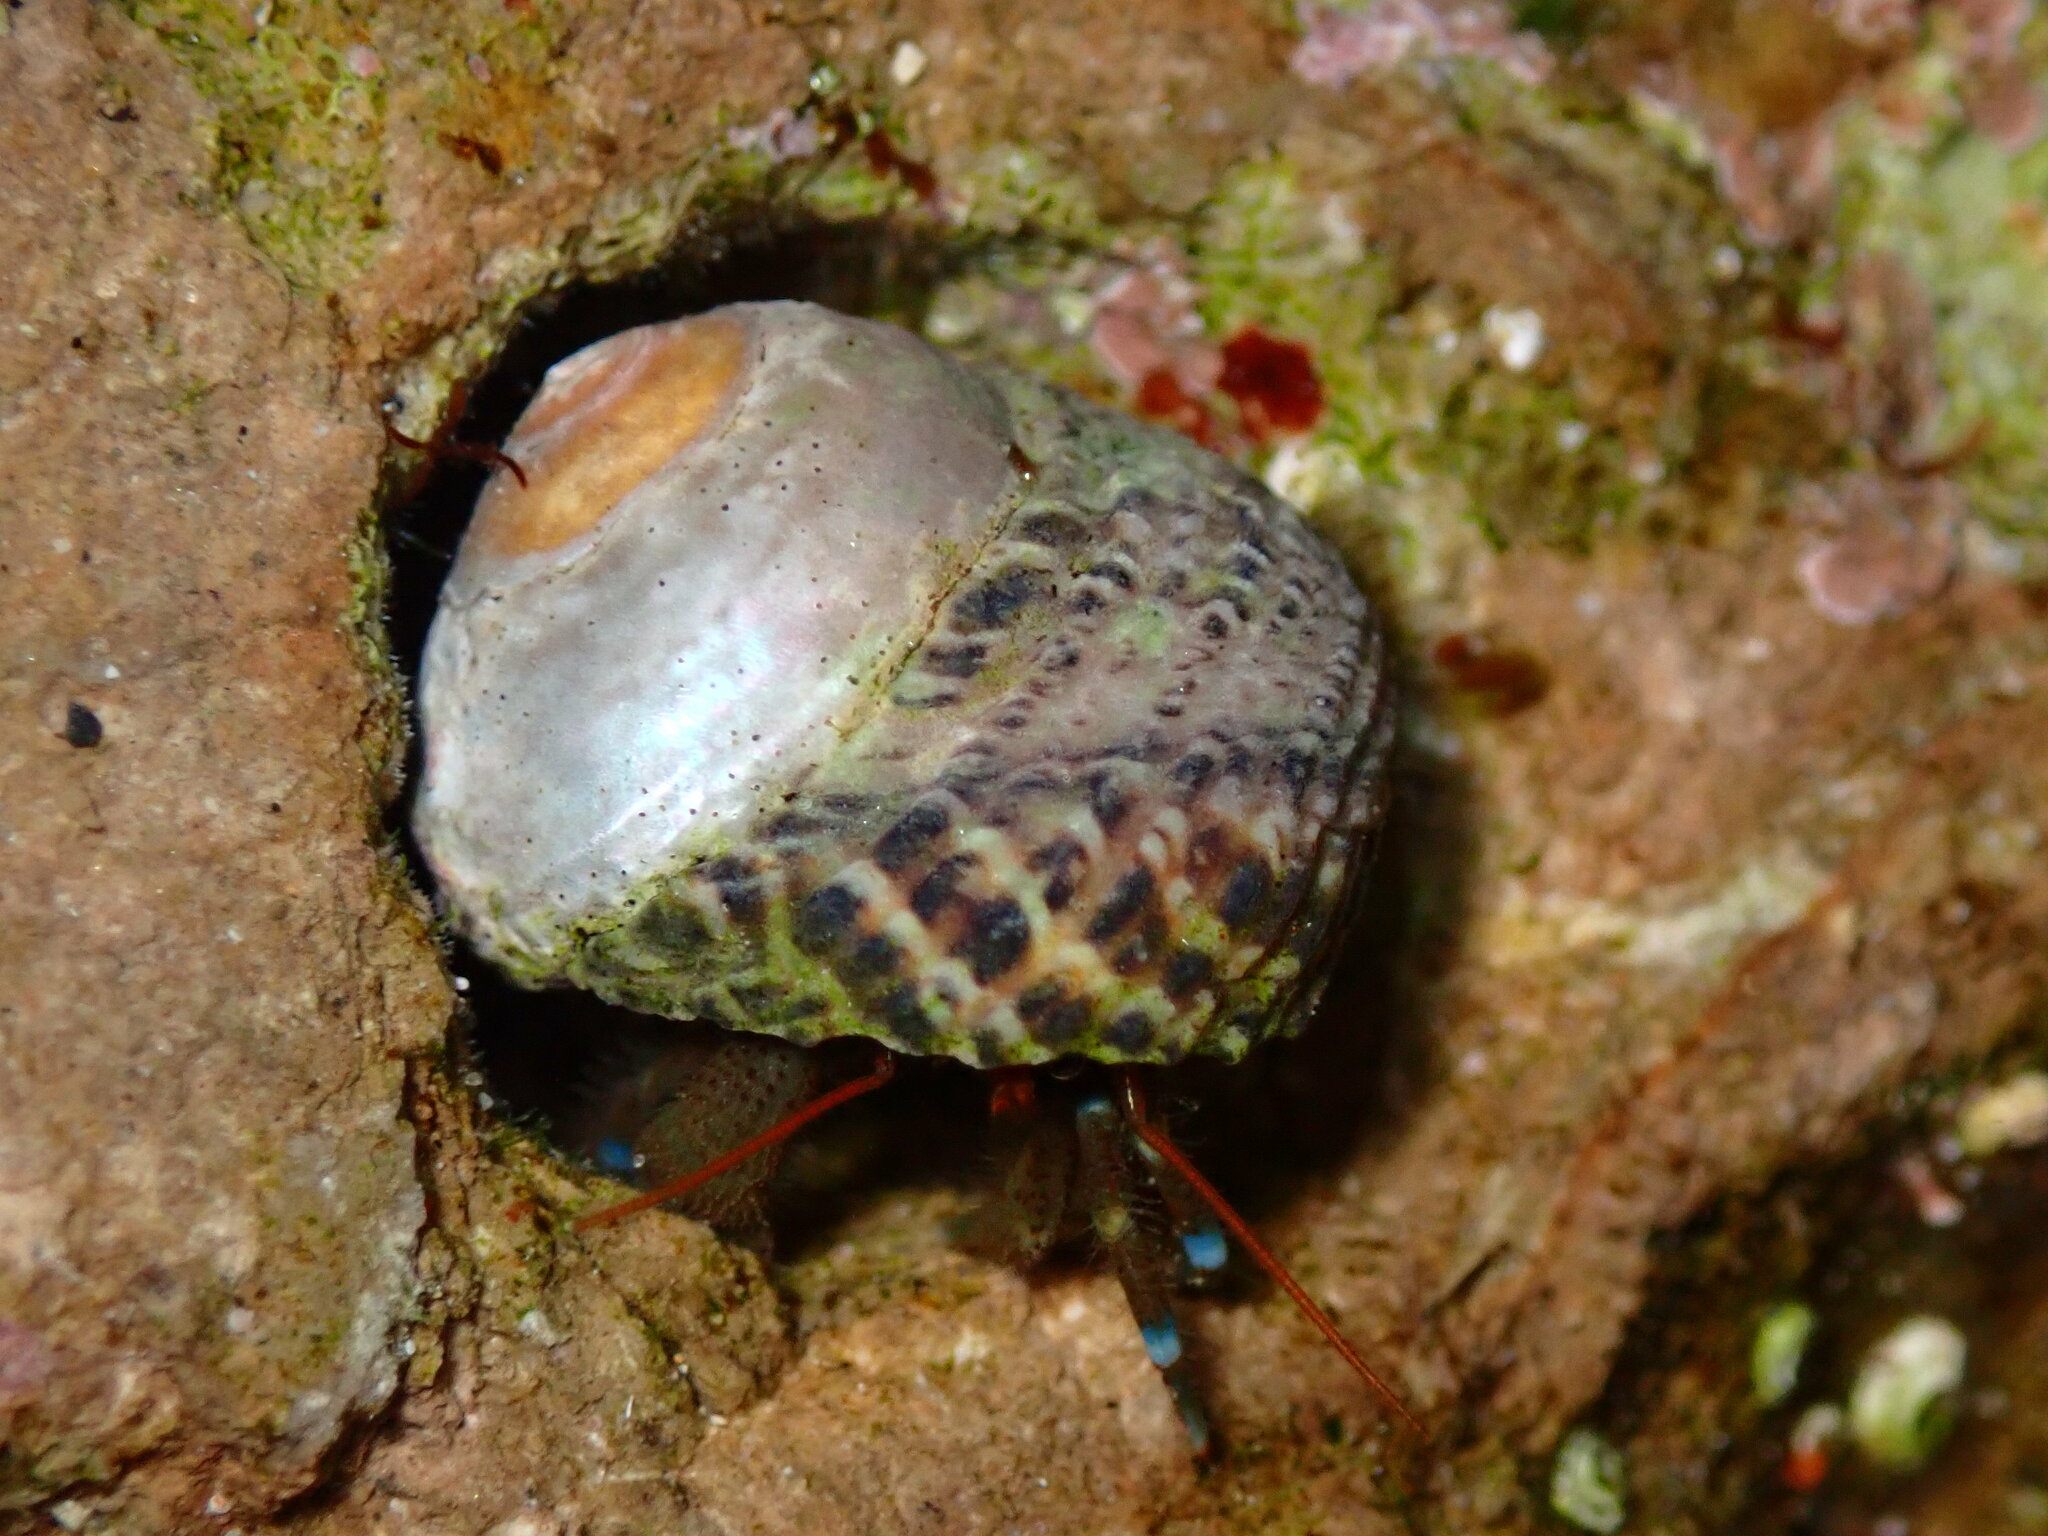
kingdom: Animalia
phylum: Arthropoda
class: Malacostraca
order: Decapoda
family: Paguridae
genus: Pagurus
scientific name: Pagurus samuelis
